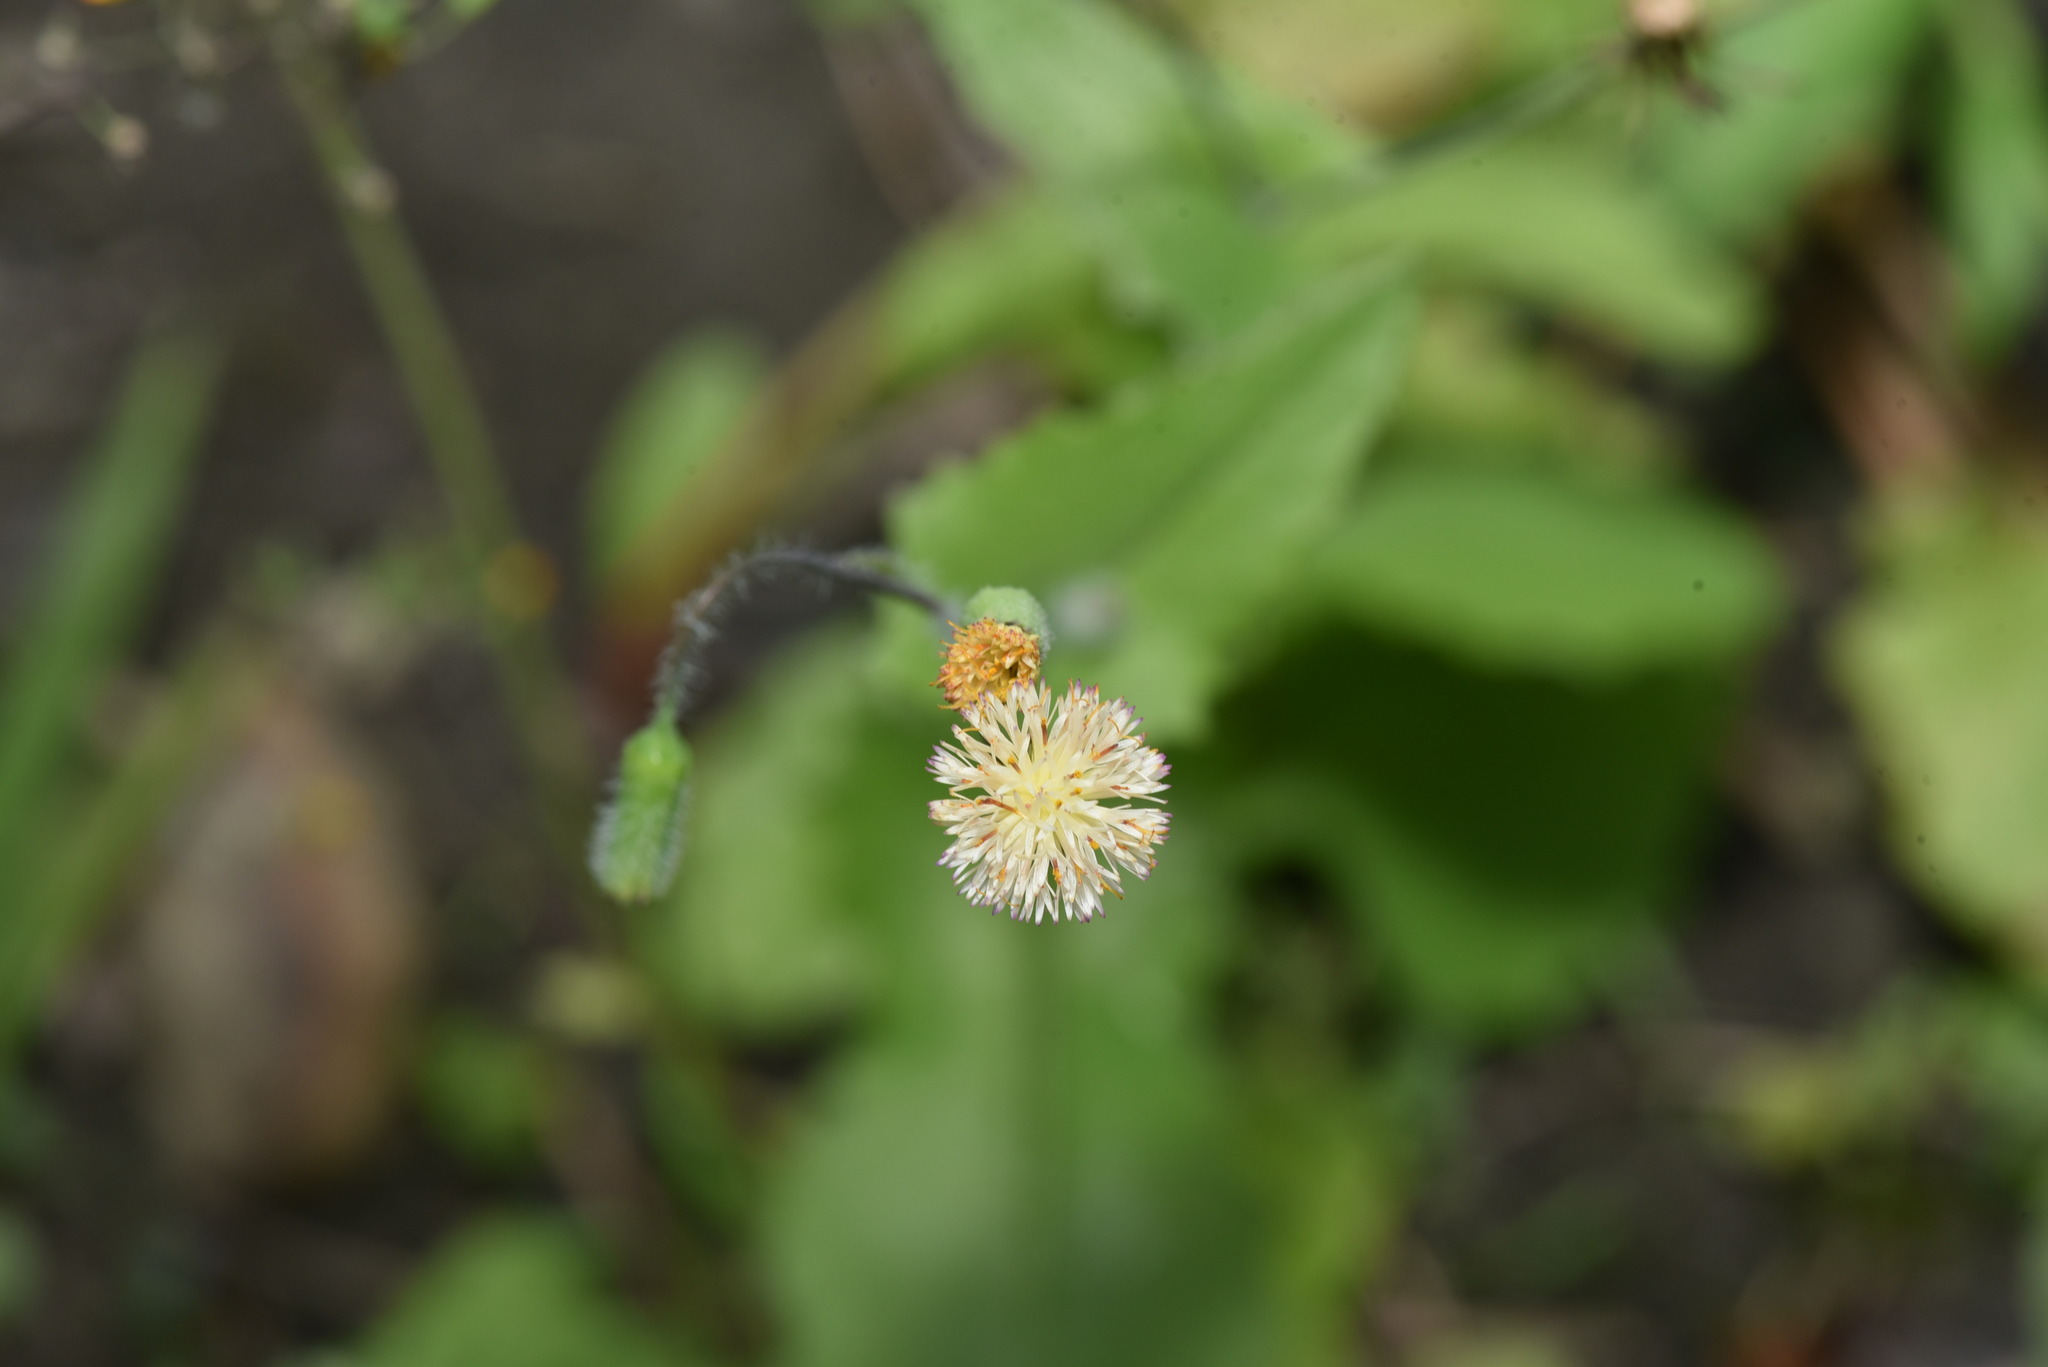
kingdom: Plantae
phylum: Tracheophyta
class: Magnoliopsida
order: Asterales
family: Asteraceae
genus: Emilia
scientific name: Emilia praetermissa
